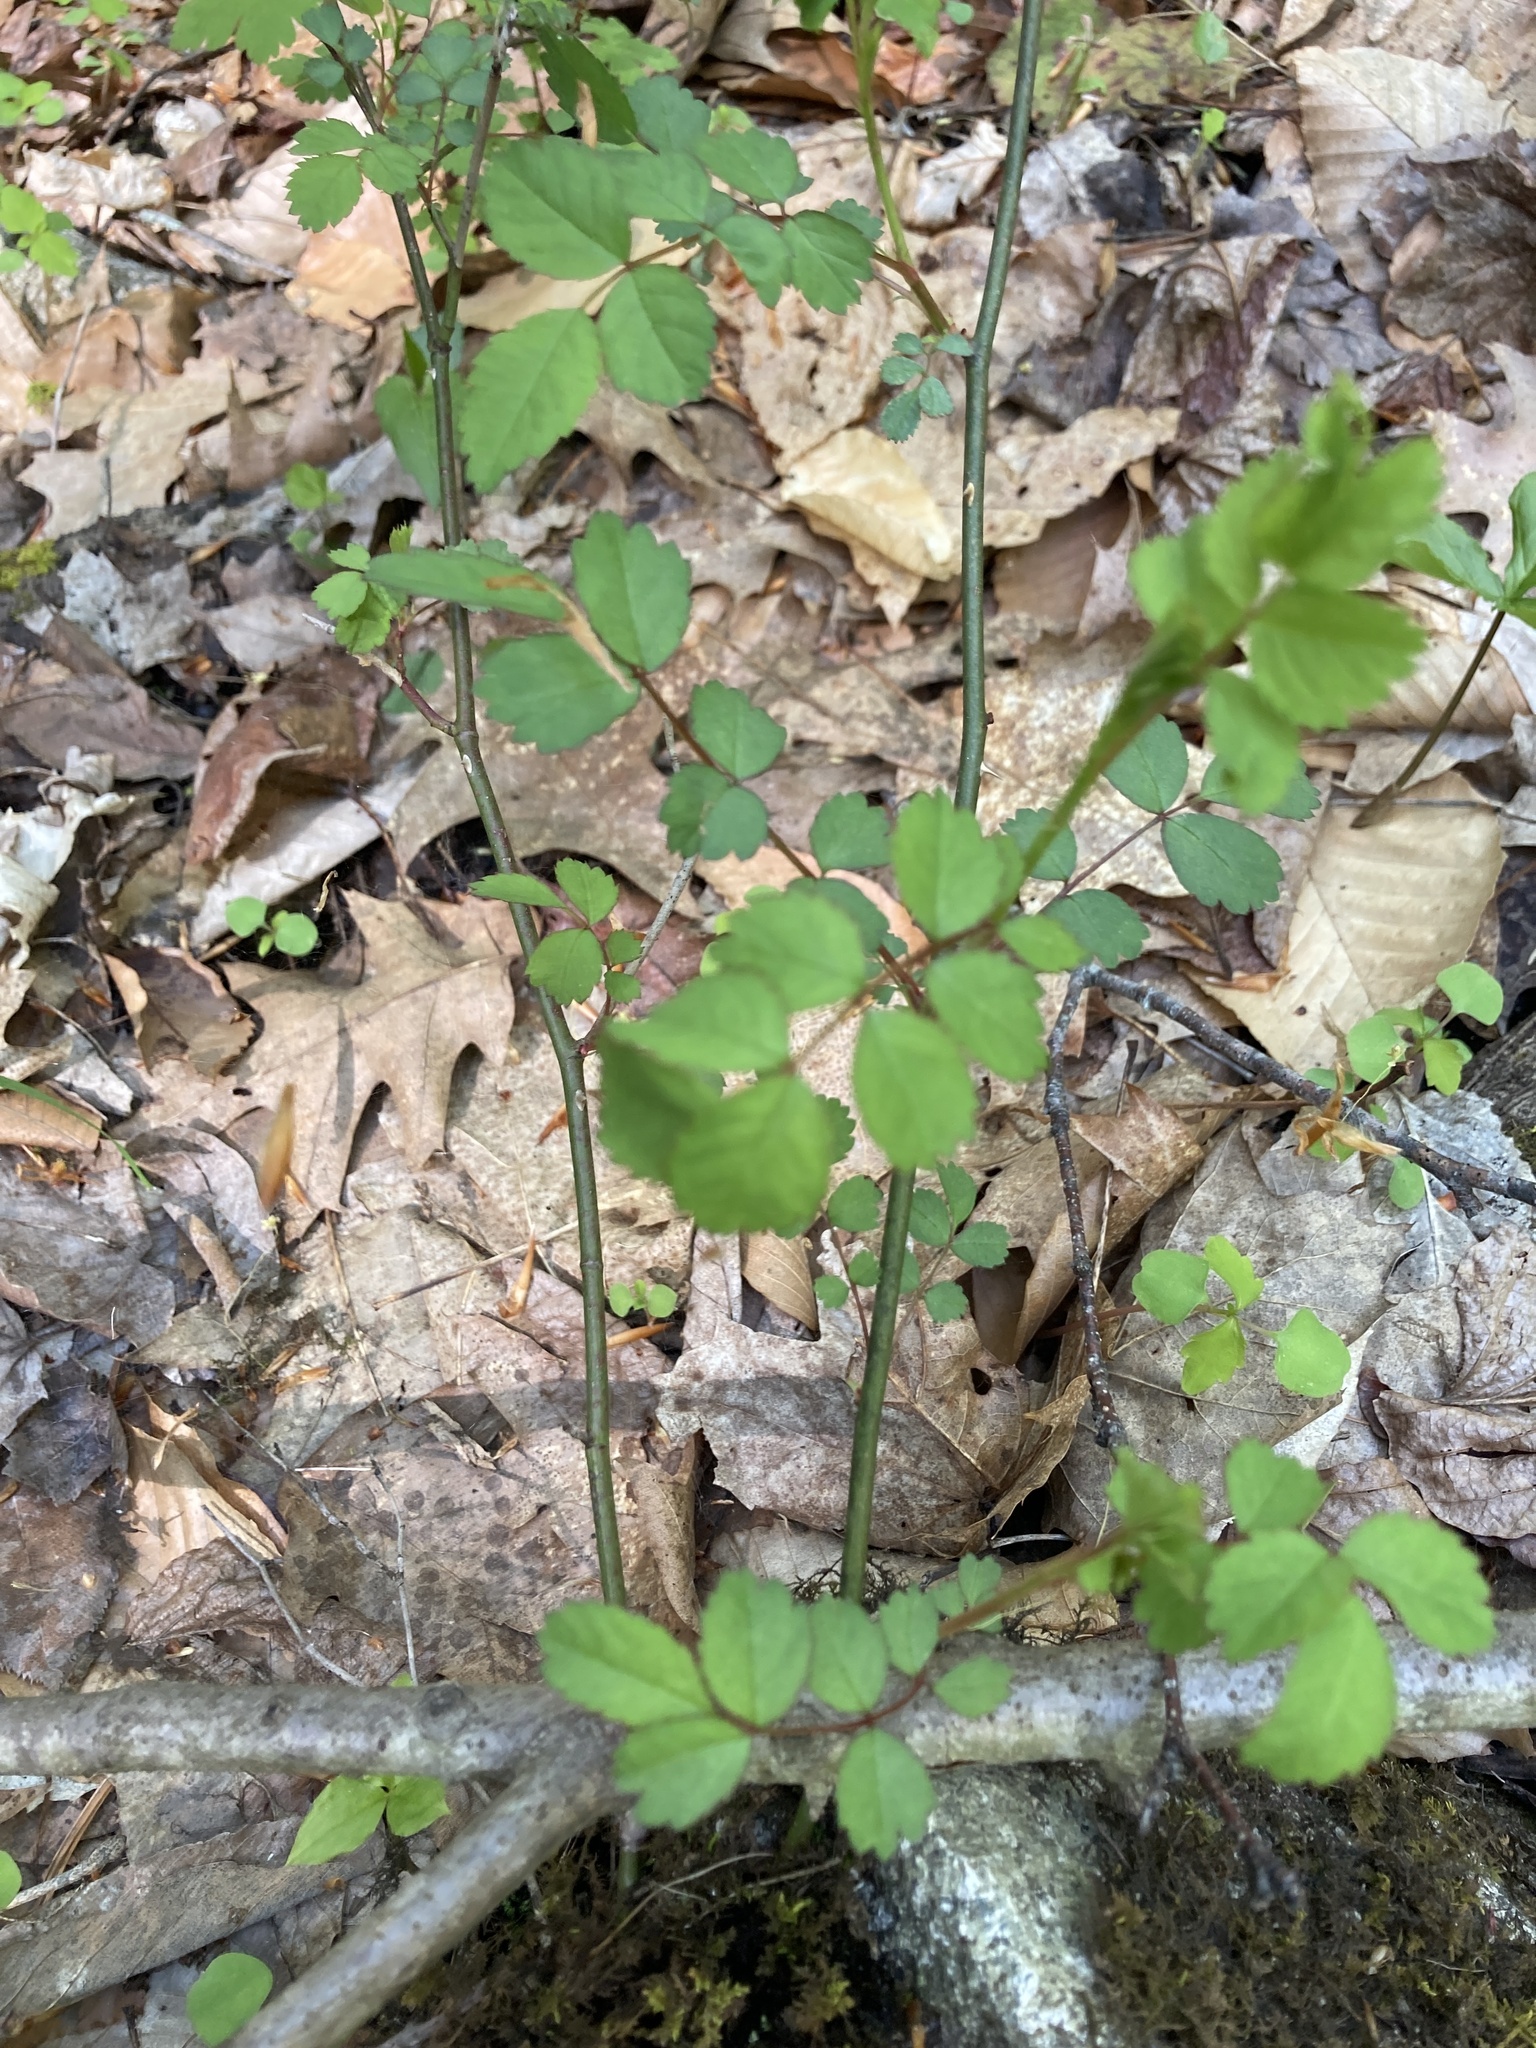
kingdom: Plantae
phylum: Tracheophyta
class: Magnoliopsida
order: Rosales
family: Rosaceae
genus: Rosa
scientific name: Rosa multiflora
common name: Multiflora rose
